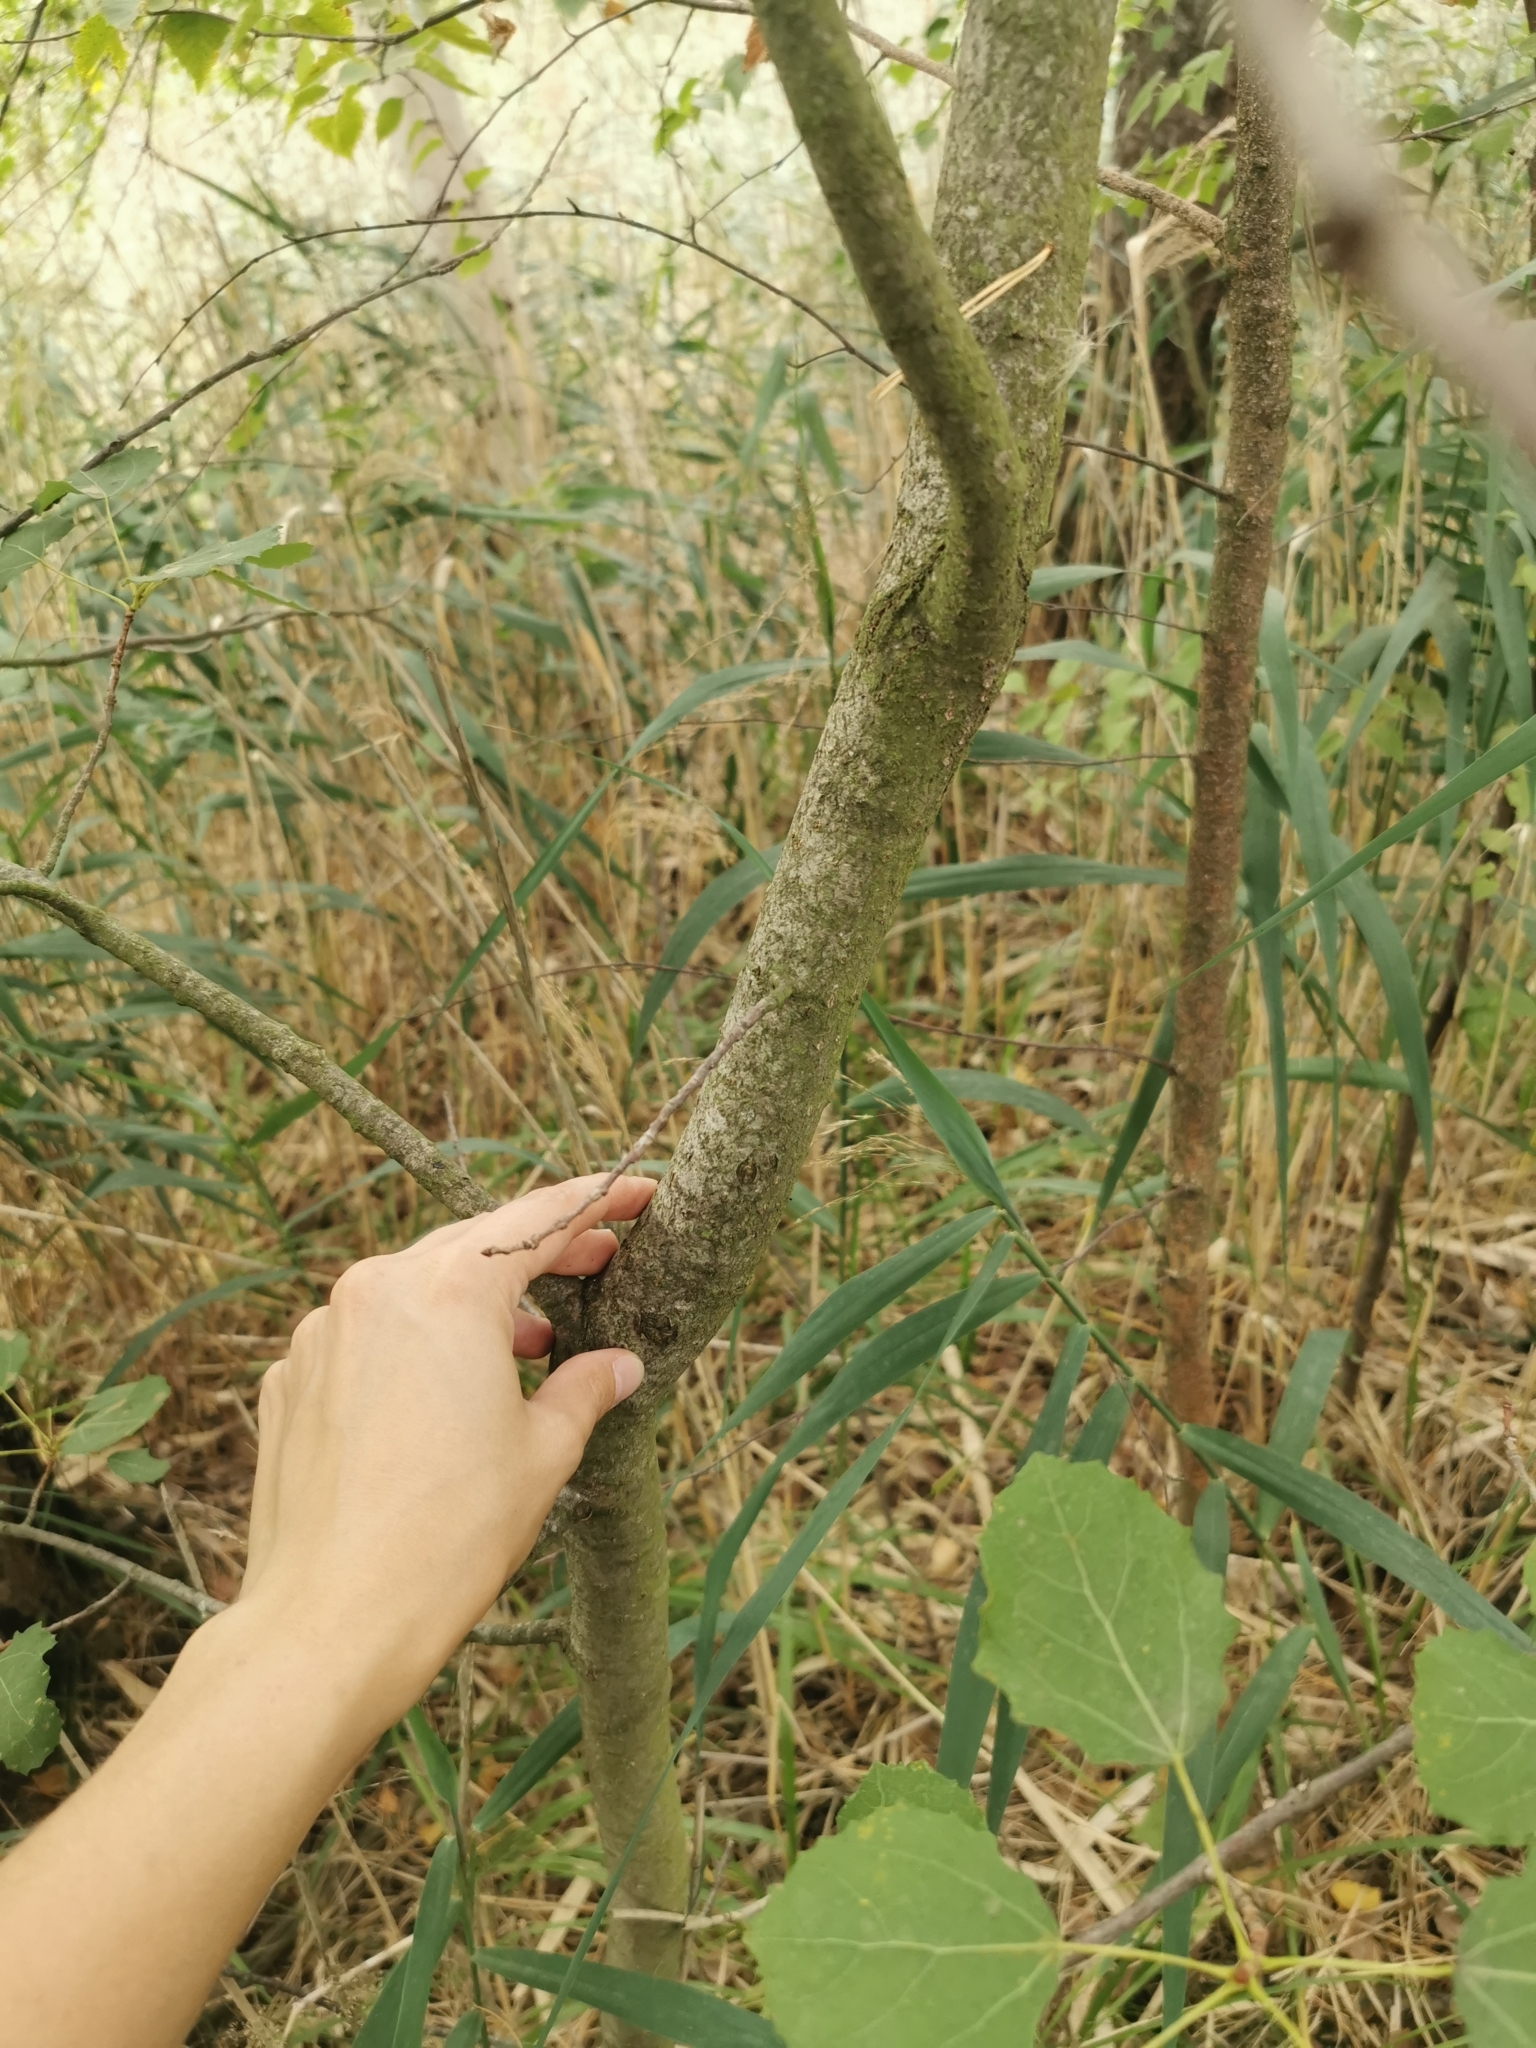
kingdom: Plantae
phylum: Tracheophyta
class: Magnoliopsida
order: Malpighiales
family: Salicaceae
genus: Populus
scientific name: Populus tremula
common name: European aspen
